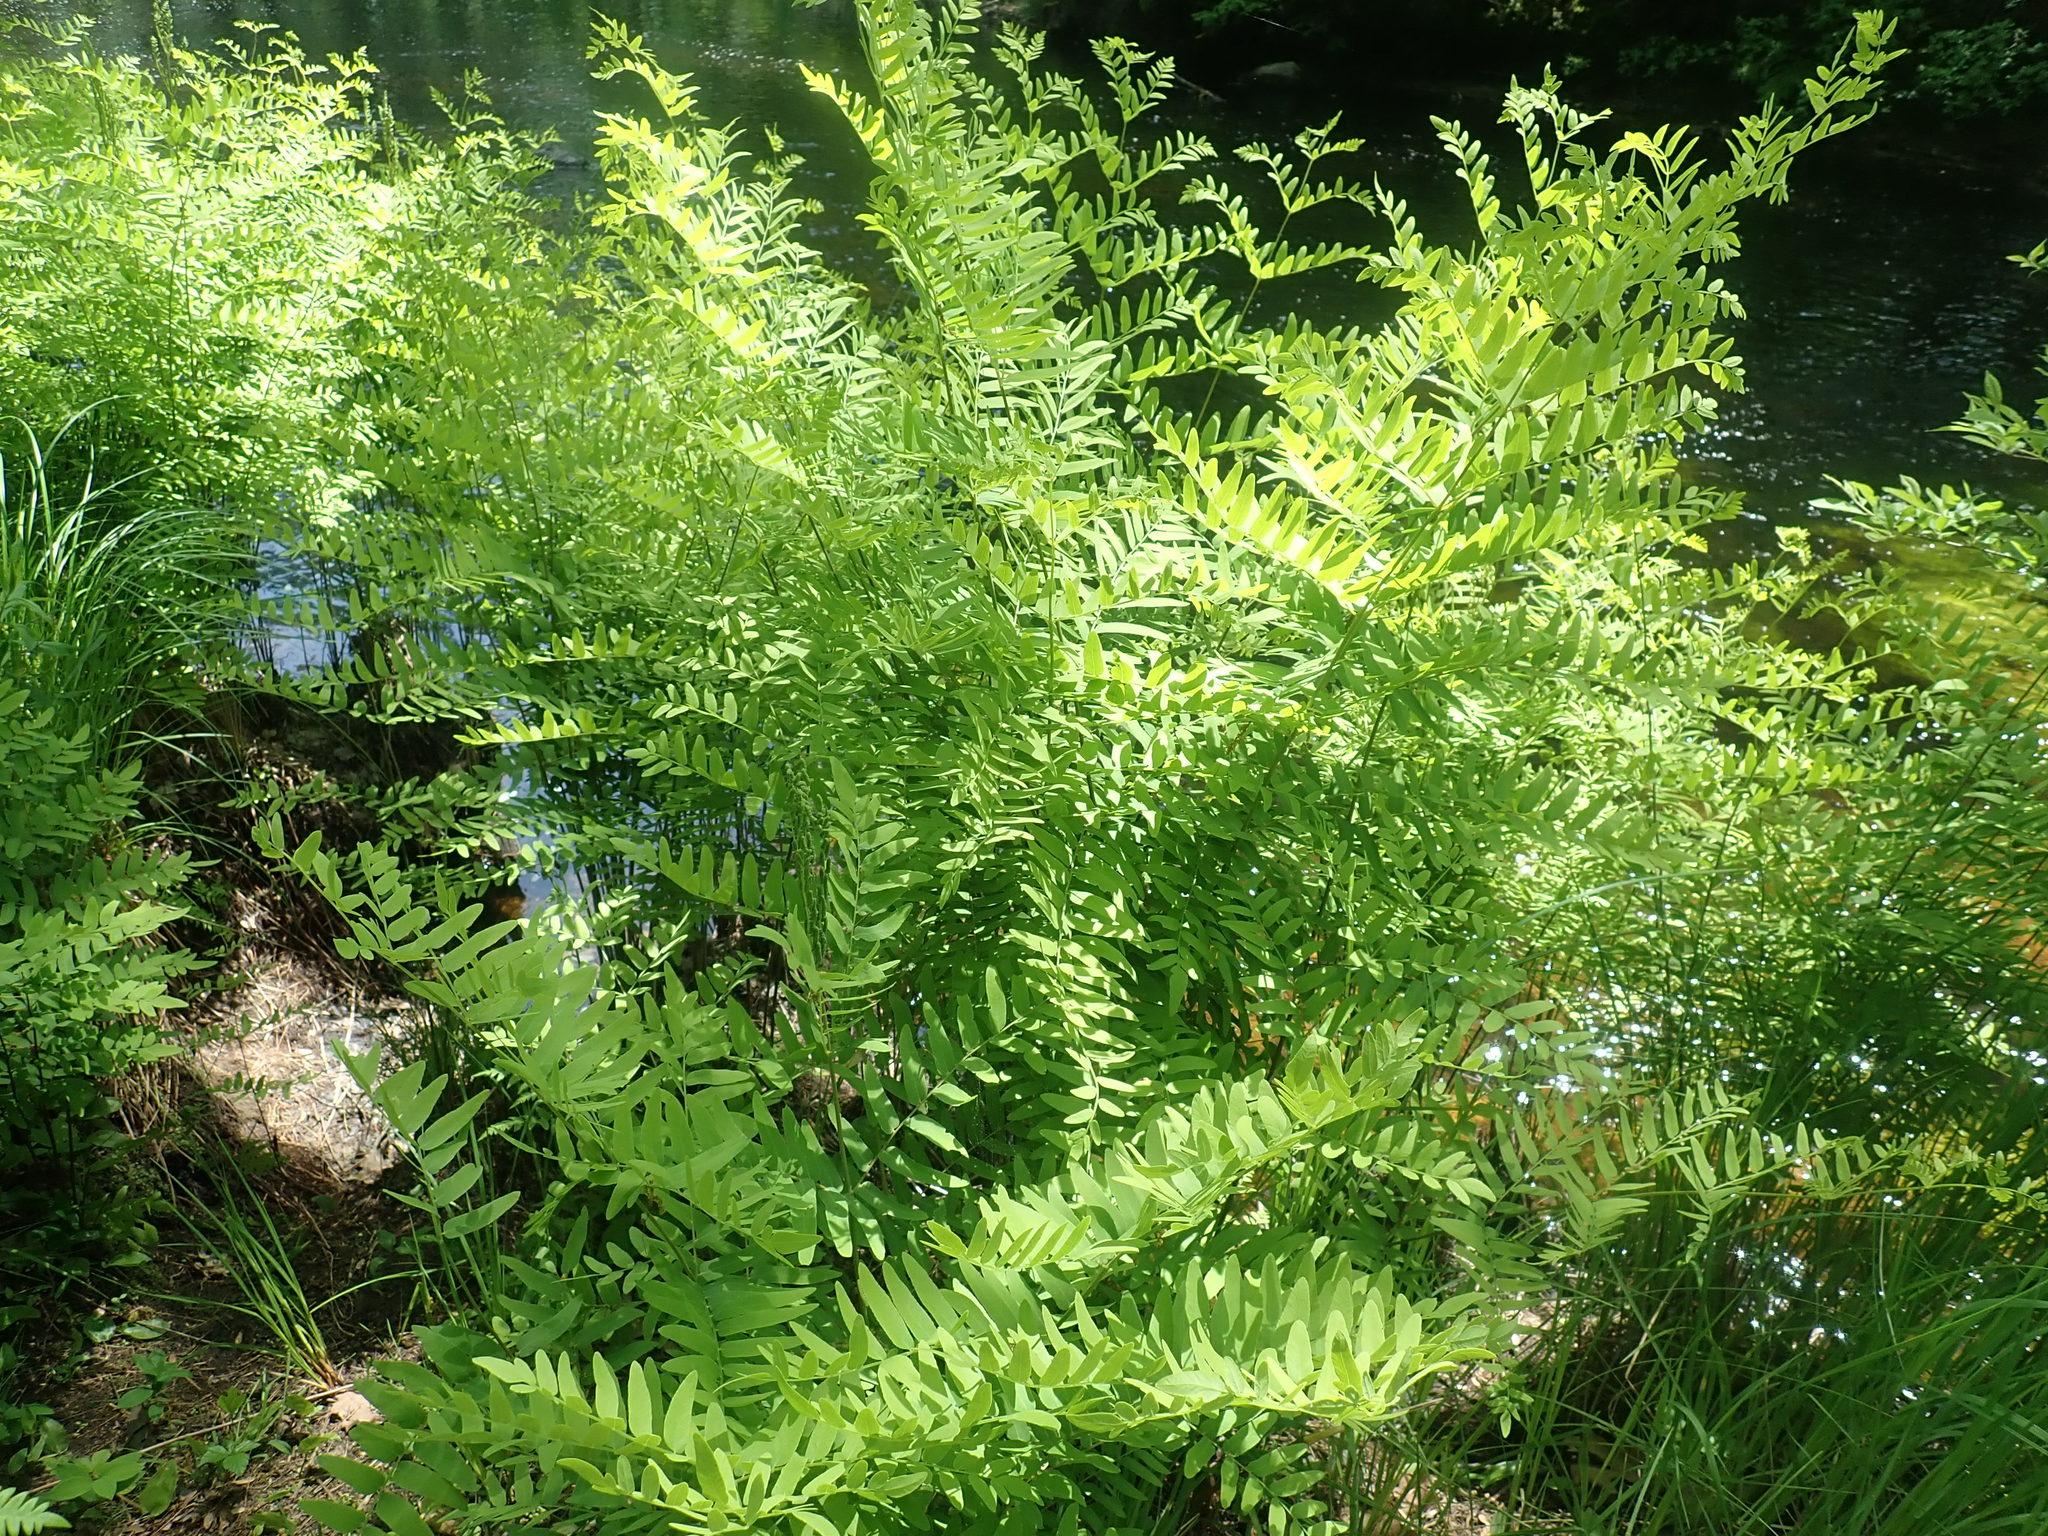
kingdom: Plantae
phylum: Tracheophyta
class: Polypodiopsida
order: Osmundales
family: Osmundaceae
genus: Osmunda
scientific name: Osmunda spectabilis
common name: American royal fern
